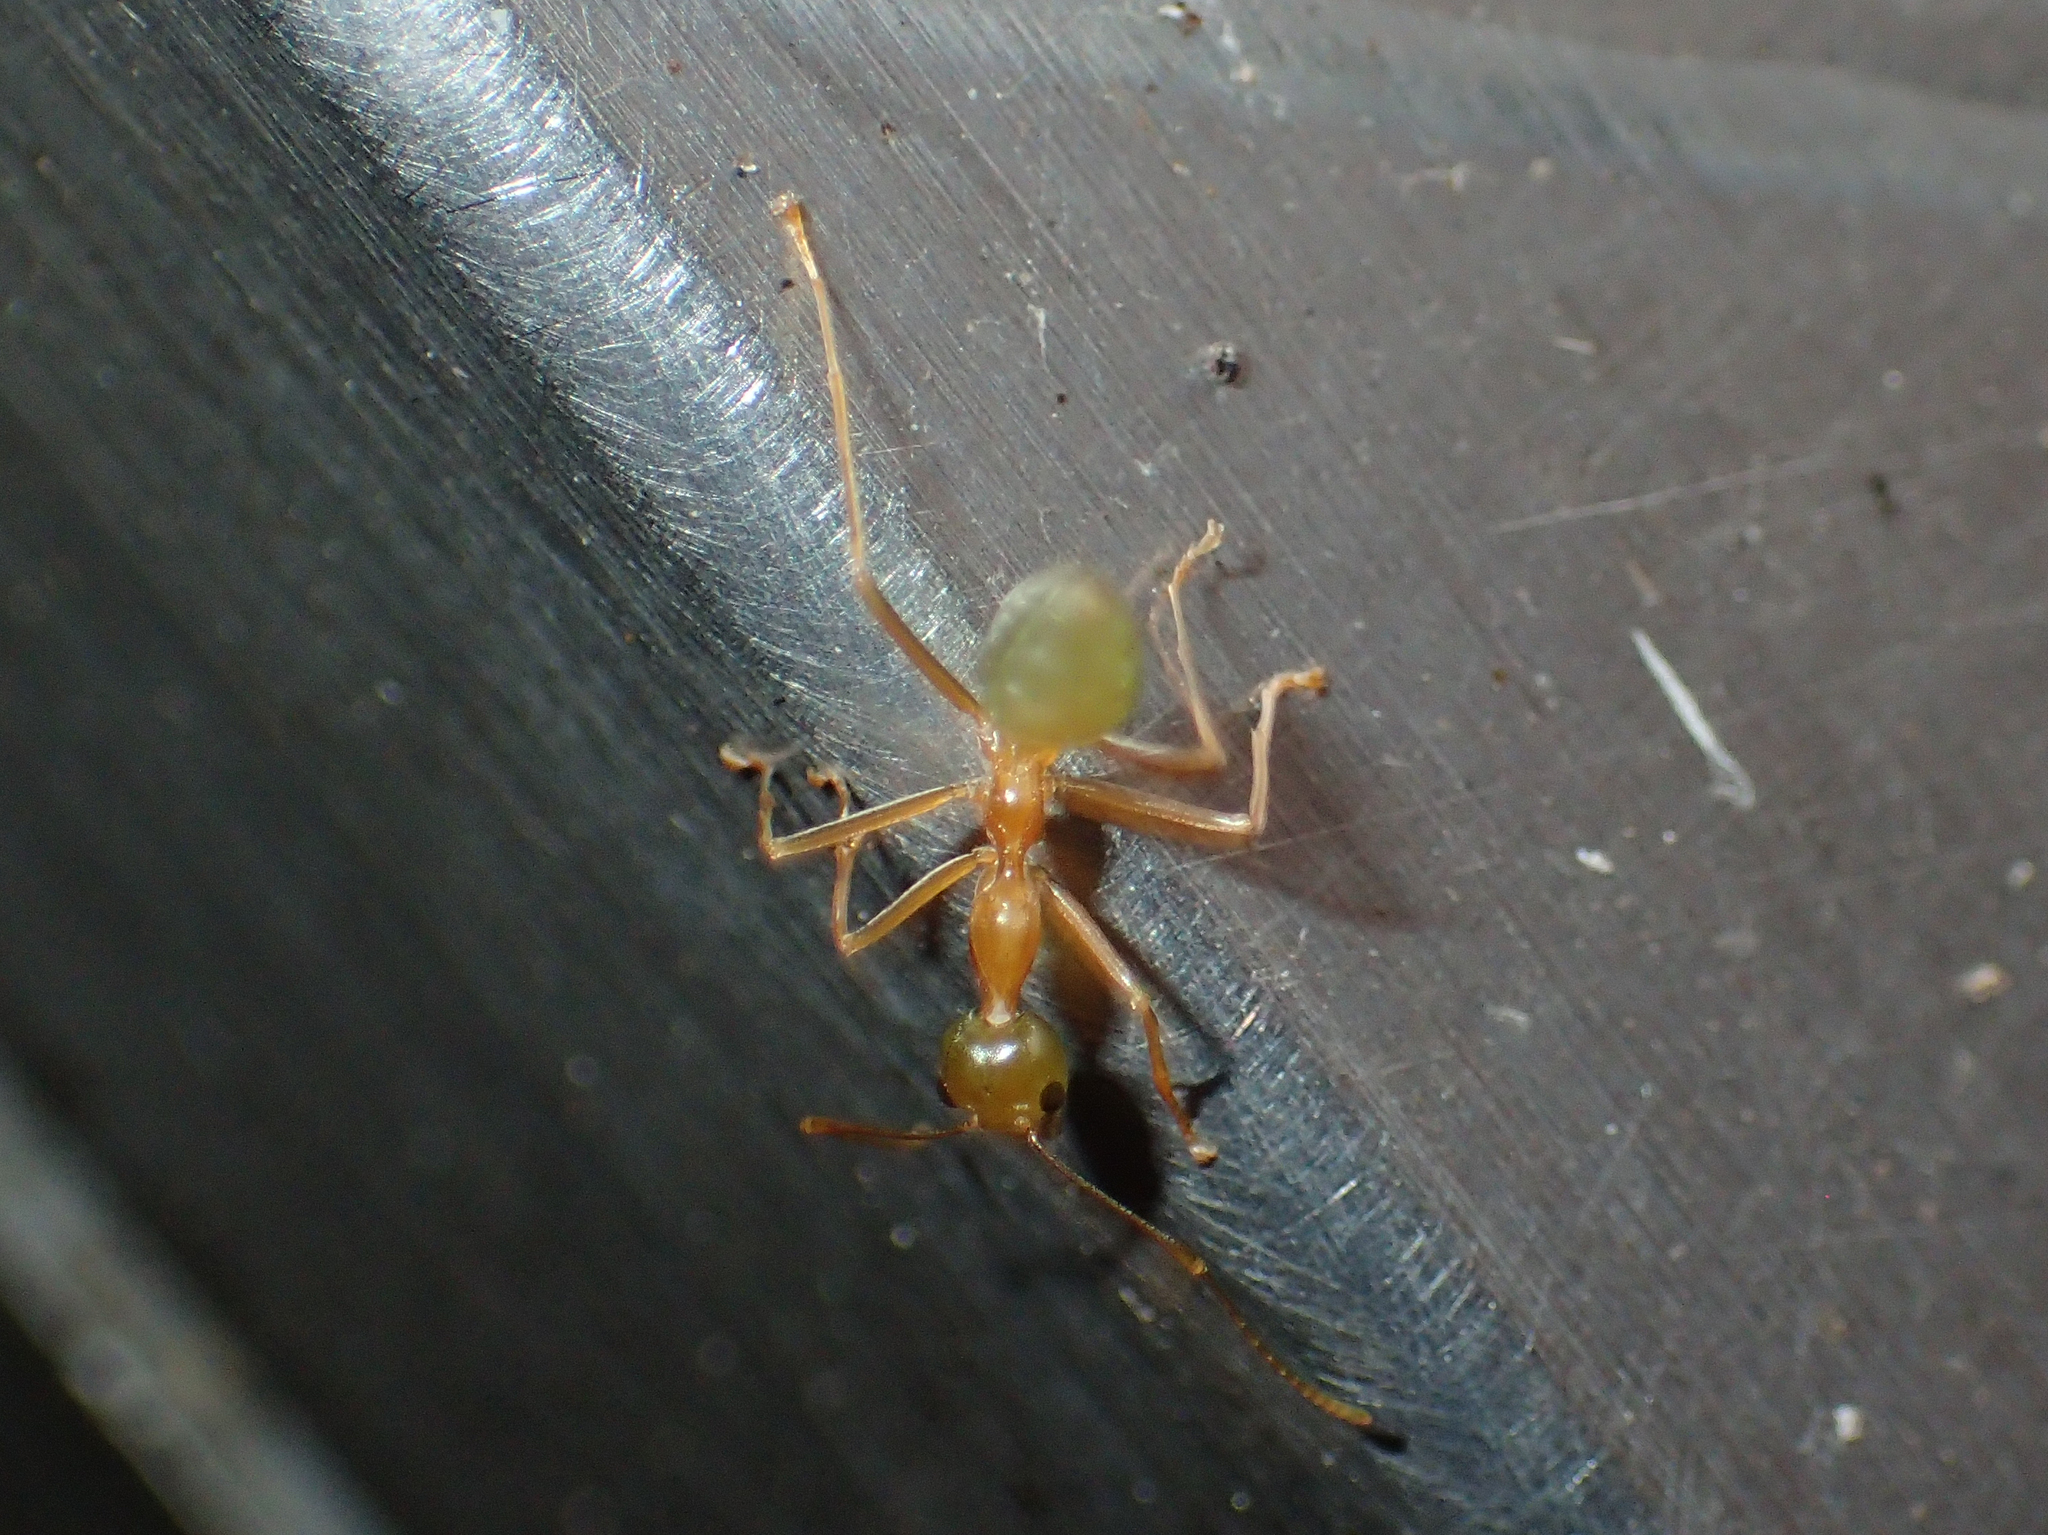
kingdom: Animalia
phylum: Arthropoda
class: Insecta
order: Hymenoptera
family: Formicidae
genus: Oecophylla
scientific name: Oecophylla smaragdina
